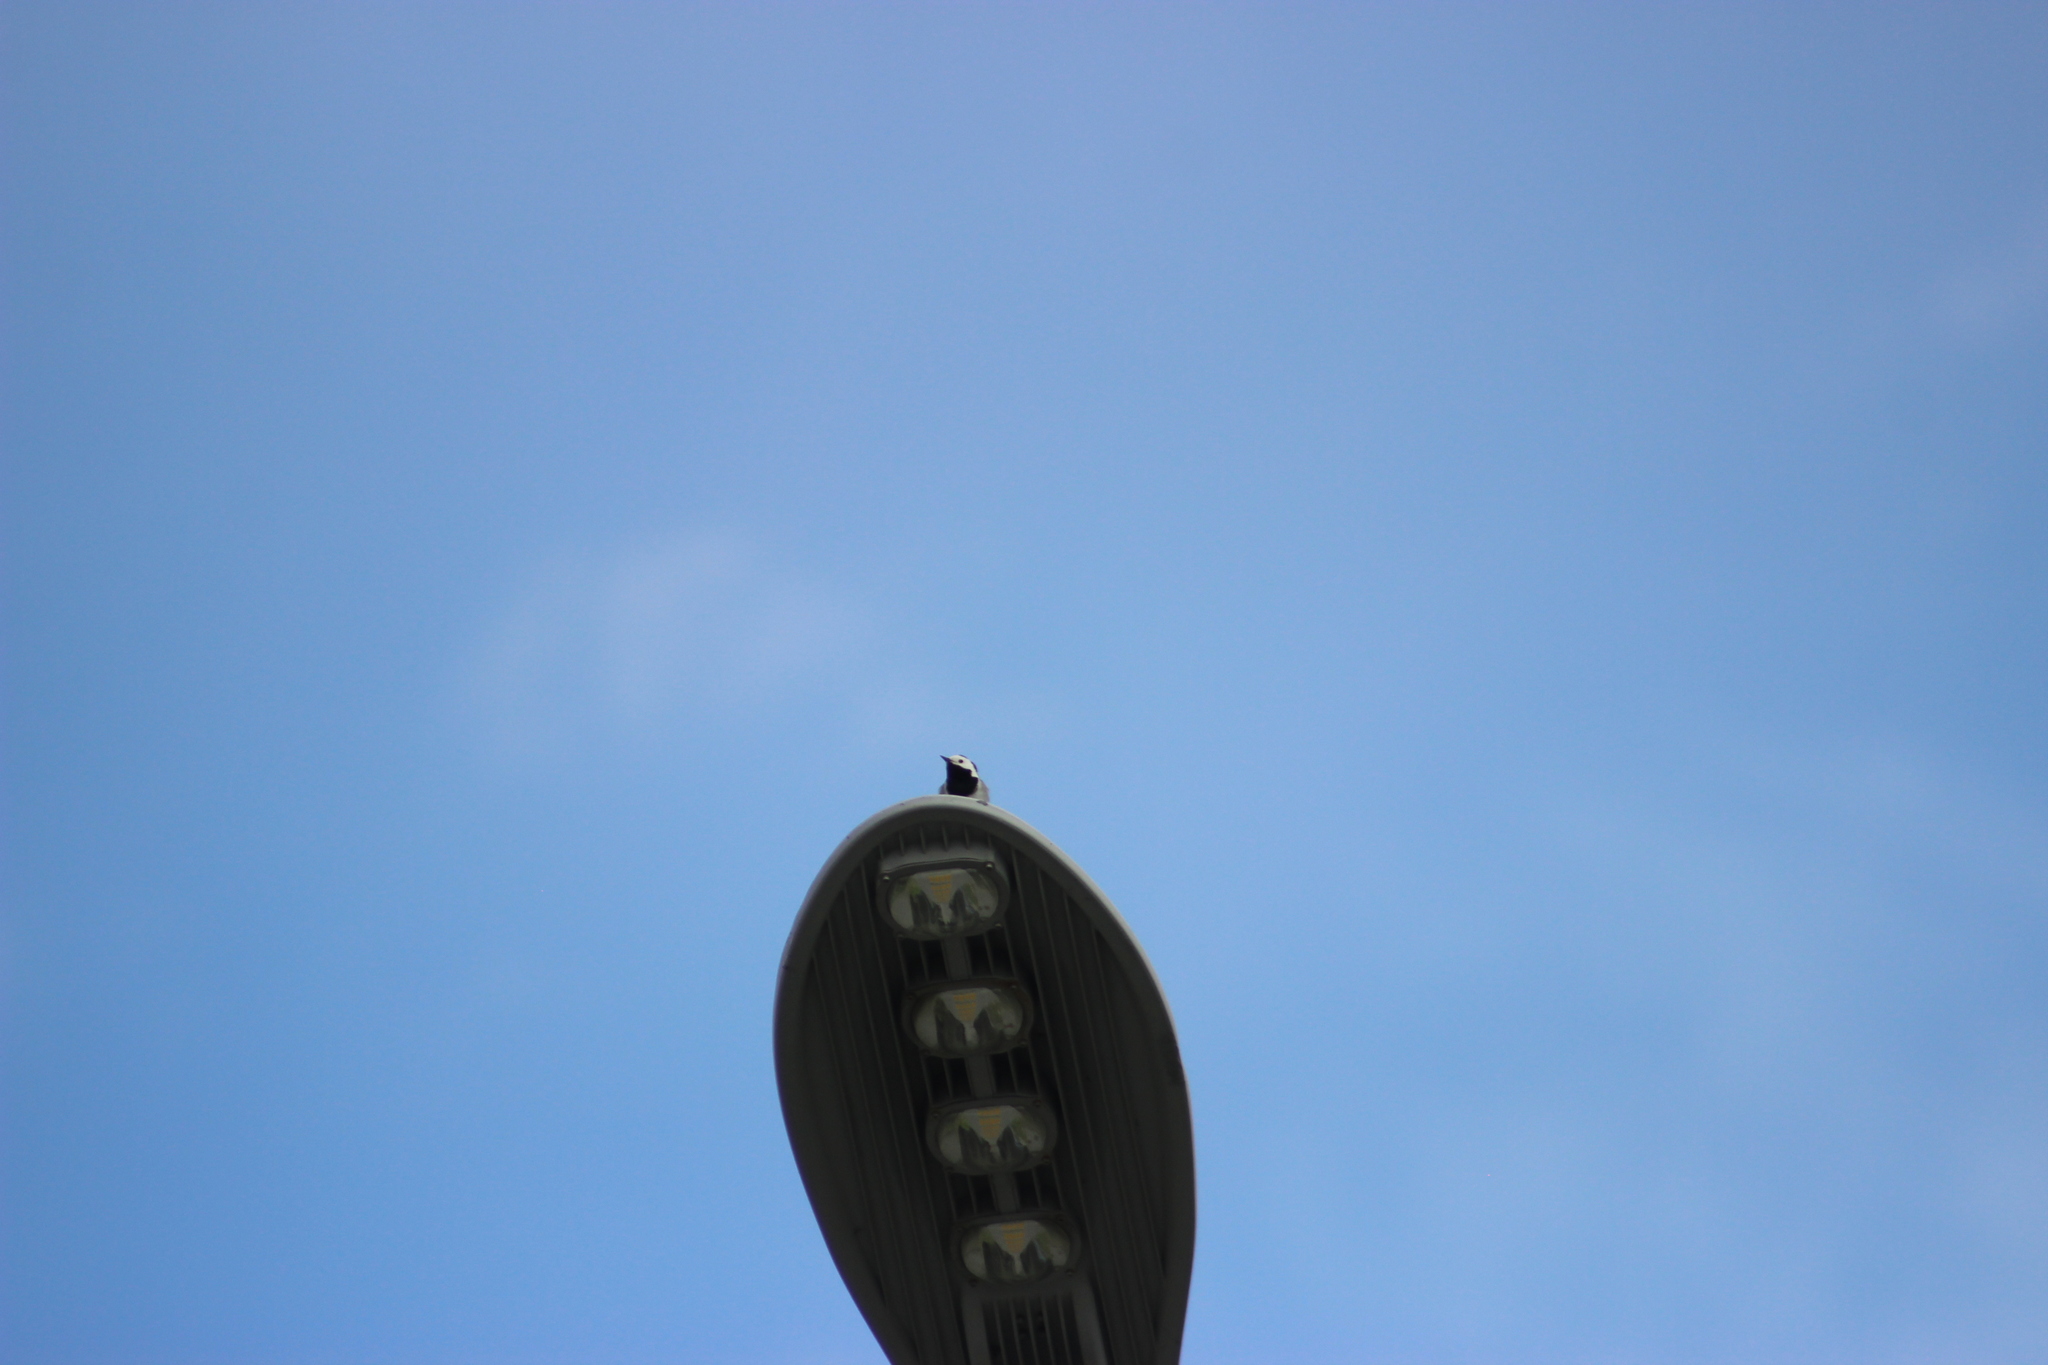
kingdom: Animalia
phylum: Chordata
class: Aves
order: Passeriformes
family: Motacillidae
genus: Motacilla
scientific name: Motacilla alba
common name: White wagtail
